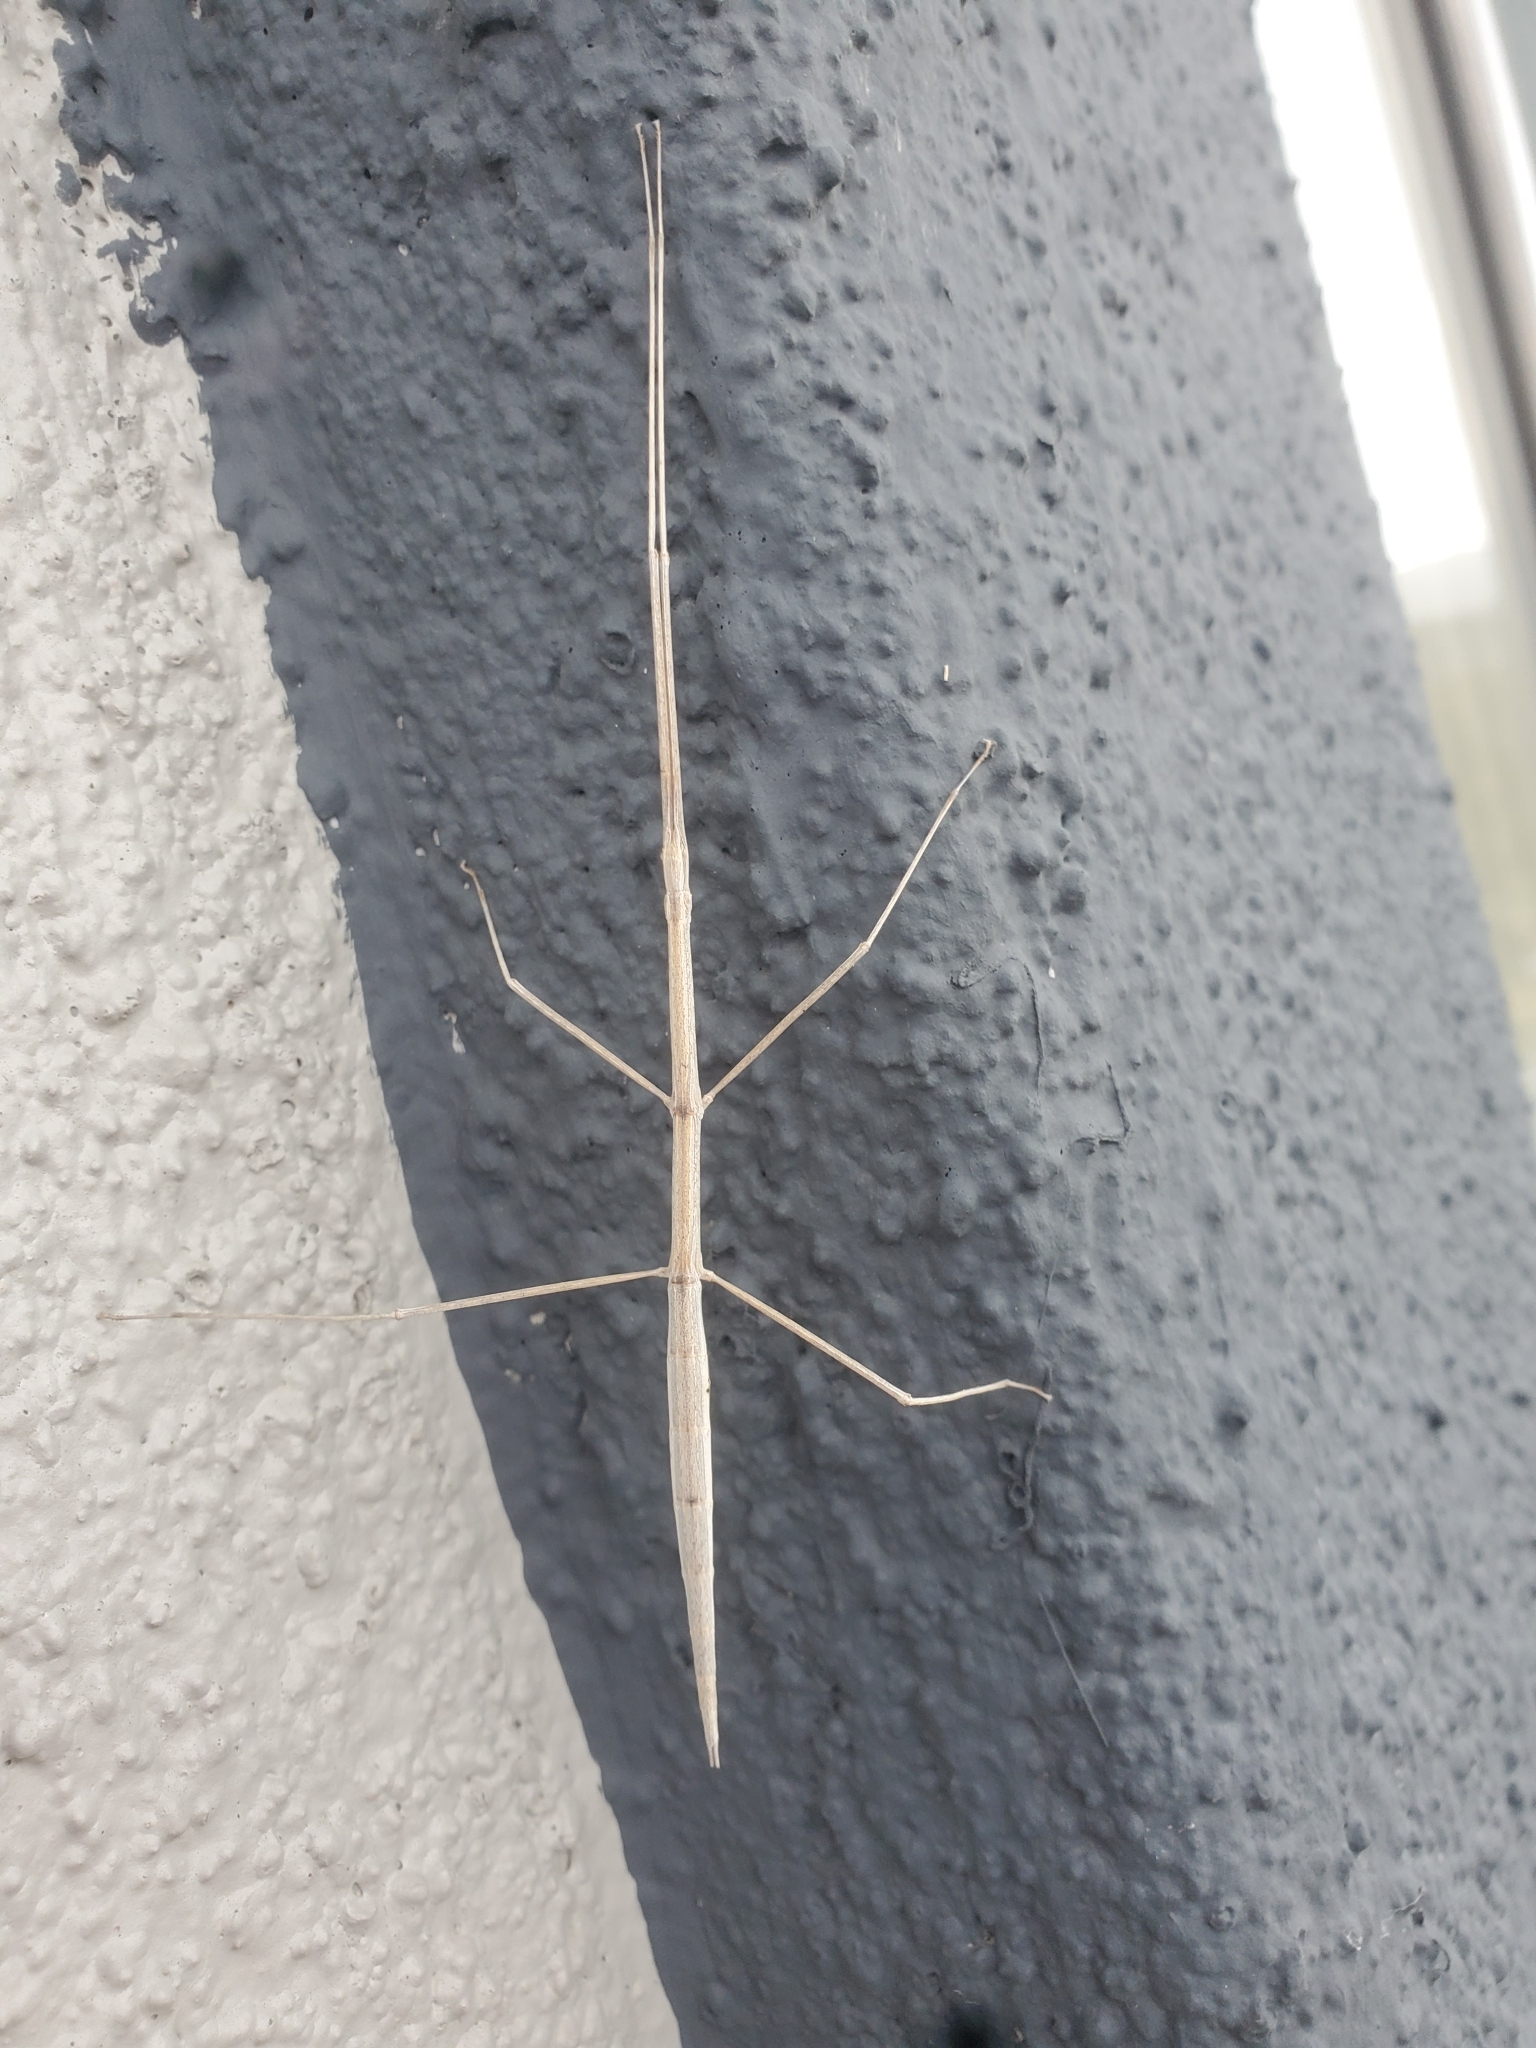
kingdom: Animalia
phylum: Arthropoda
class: Insecta
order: Phasmida
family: Heteronemiidae
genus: Parabacillus
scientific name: Parabacillus hesperus
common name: Western short-horned walkingstick
